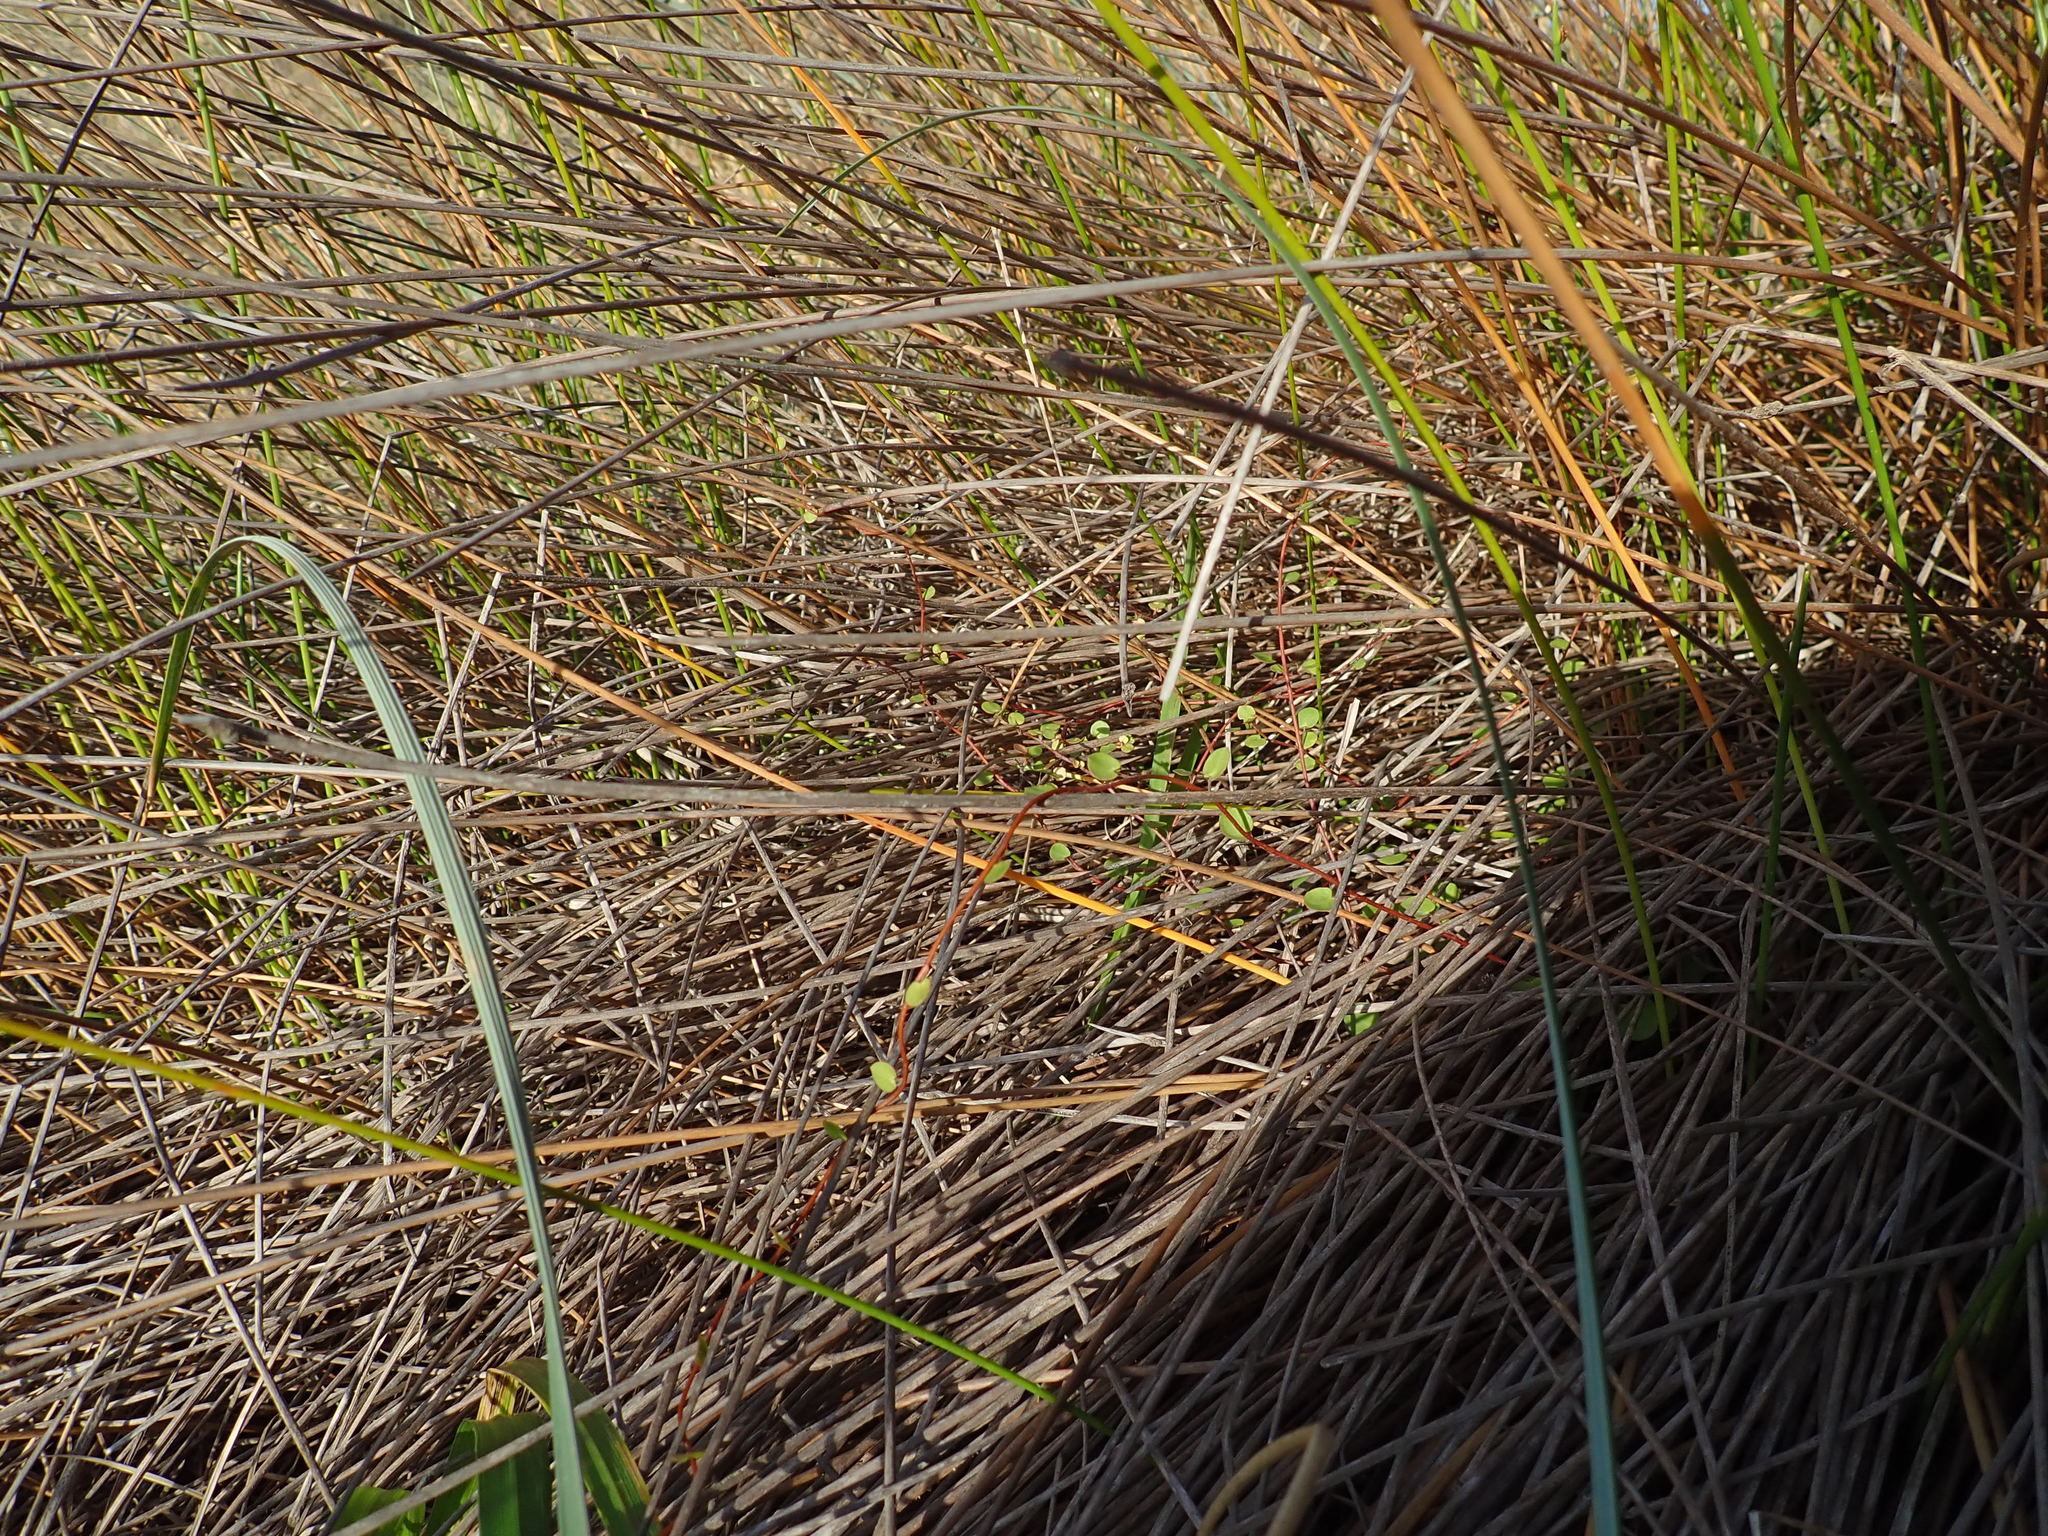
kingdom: Plantae
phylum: Tracheophyta
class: Magnoliopsida
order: Caryophyllales
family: Polygonaceae
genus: Muehlenbeckia
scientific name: Muehlenbeckia complexa
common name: Wireplant
